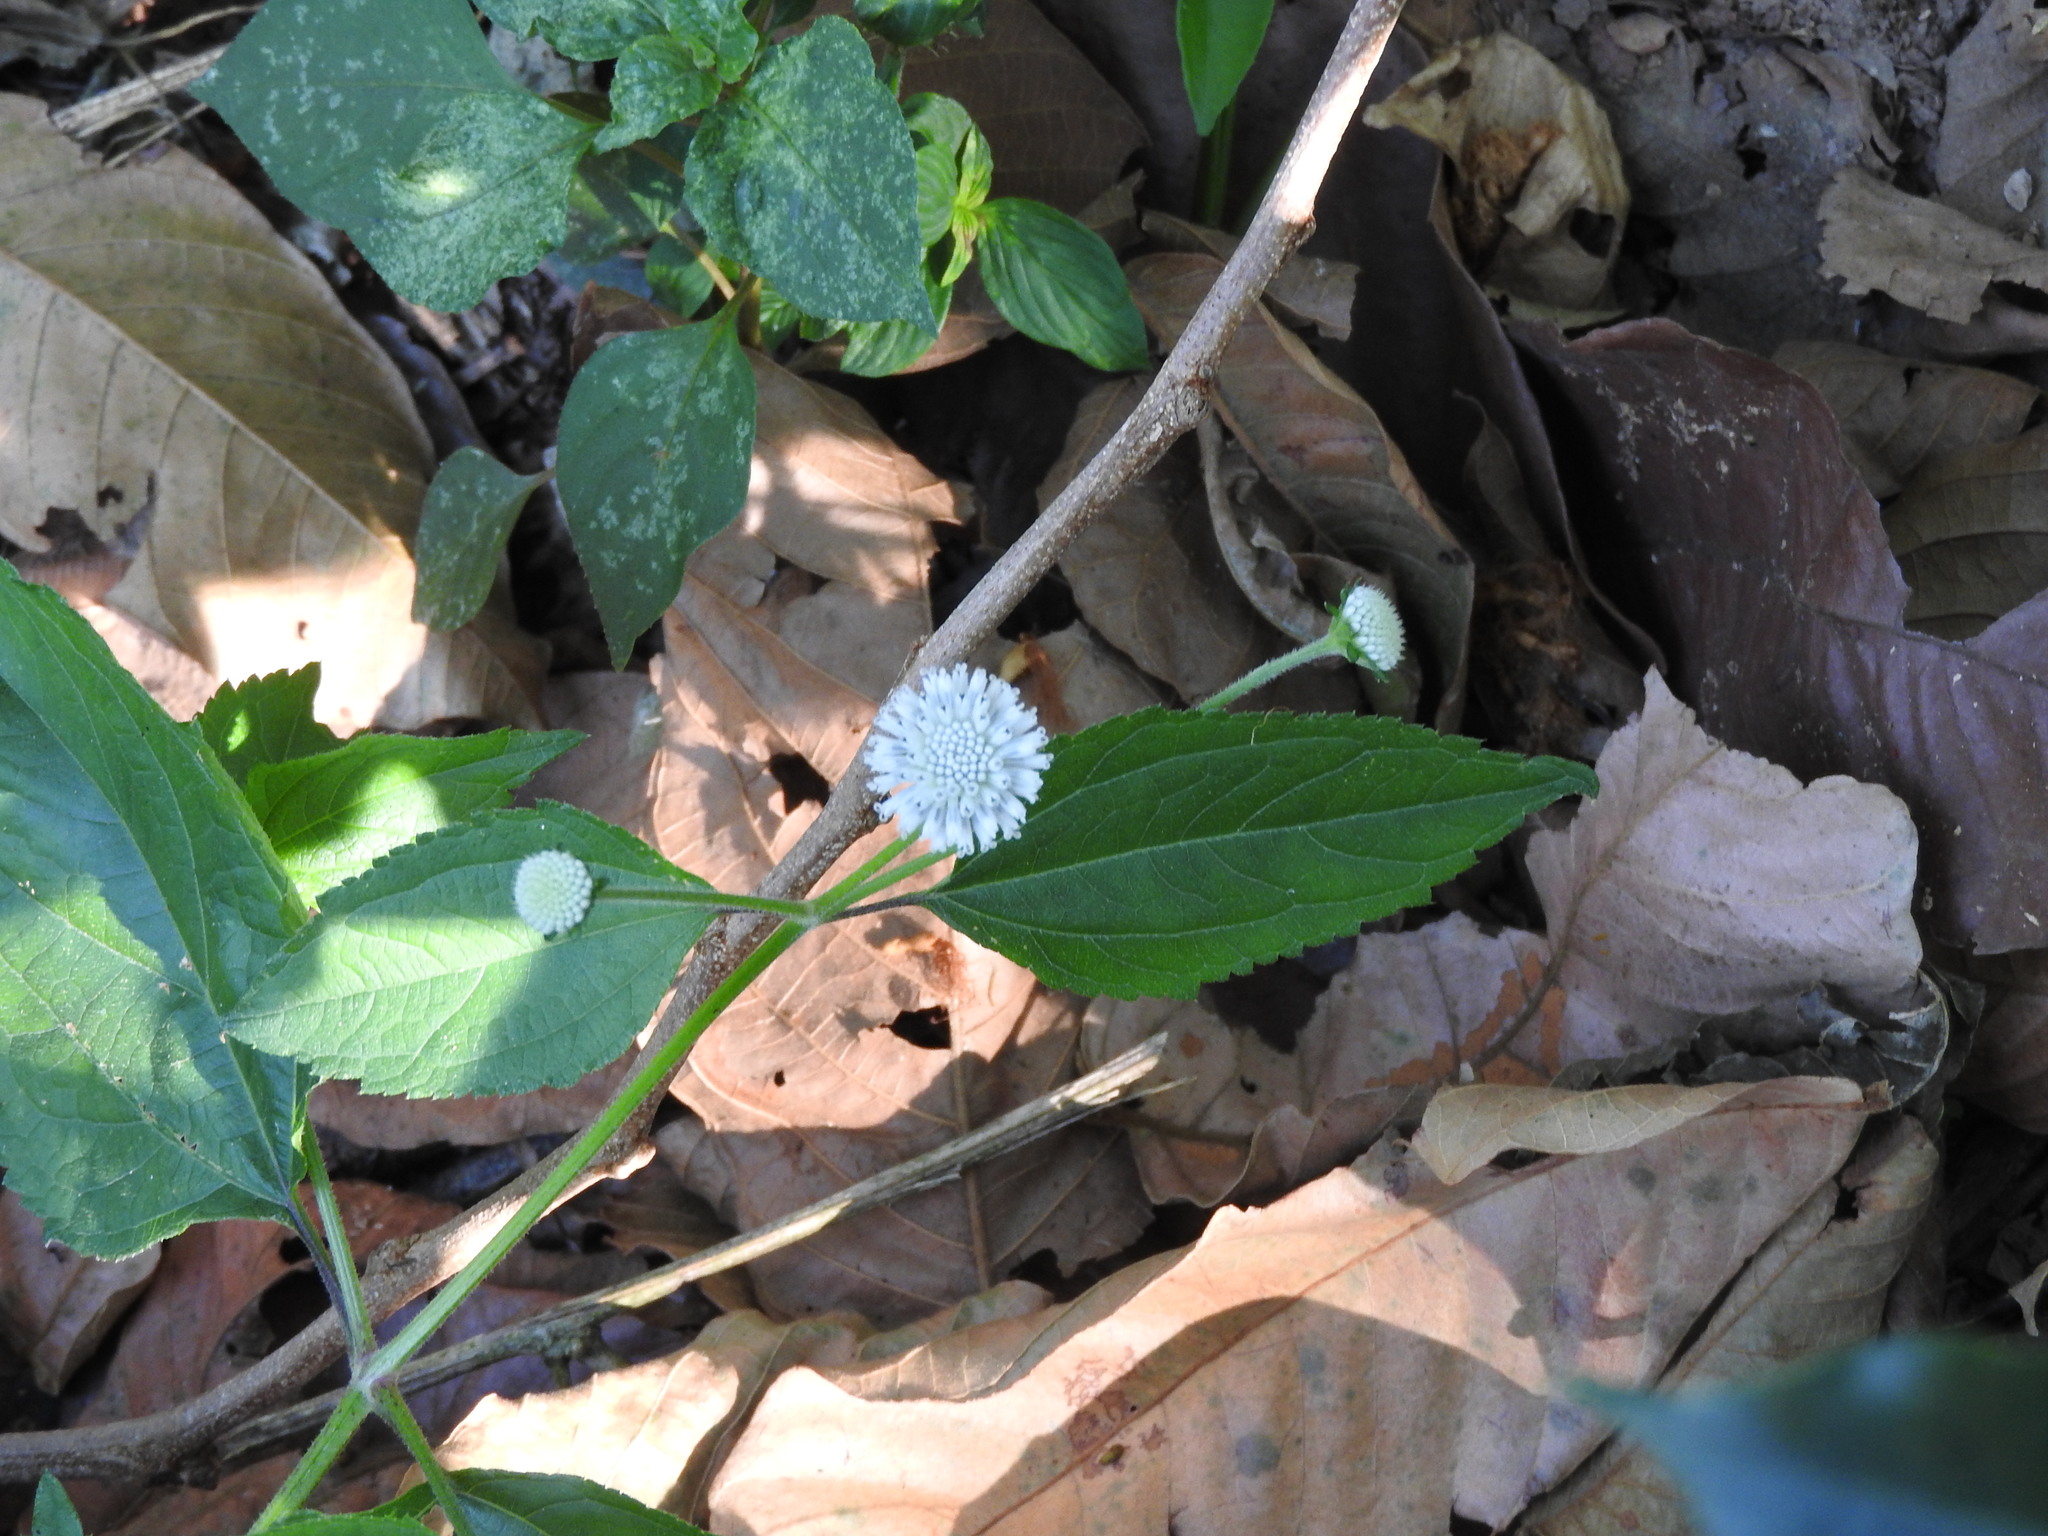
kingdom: Plantae
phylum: Tracheophyta
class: Magnoliopsida
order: Asterales
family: Asteraceae
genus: Melanthera
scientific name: Melanthera nivea
